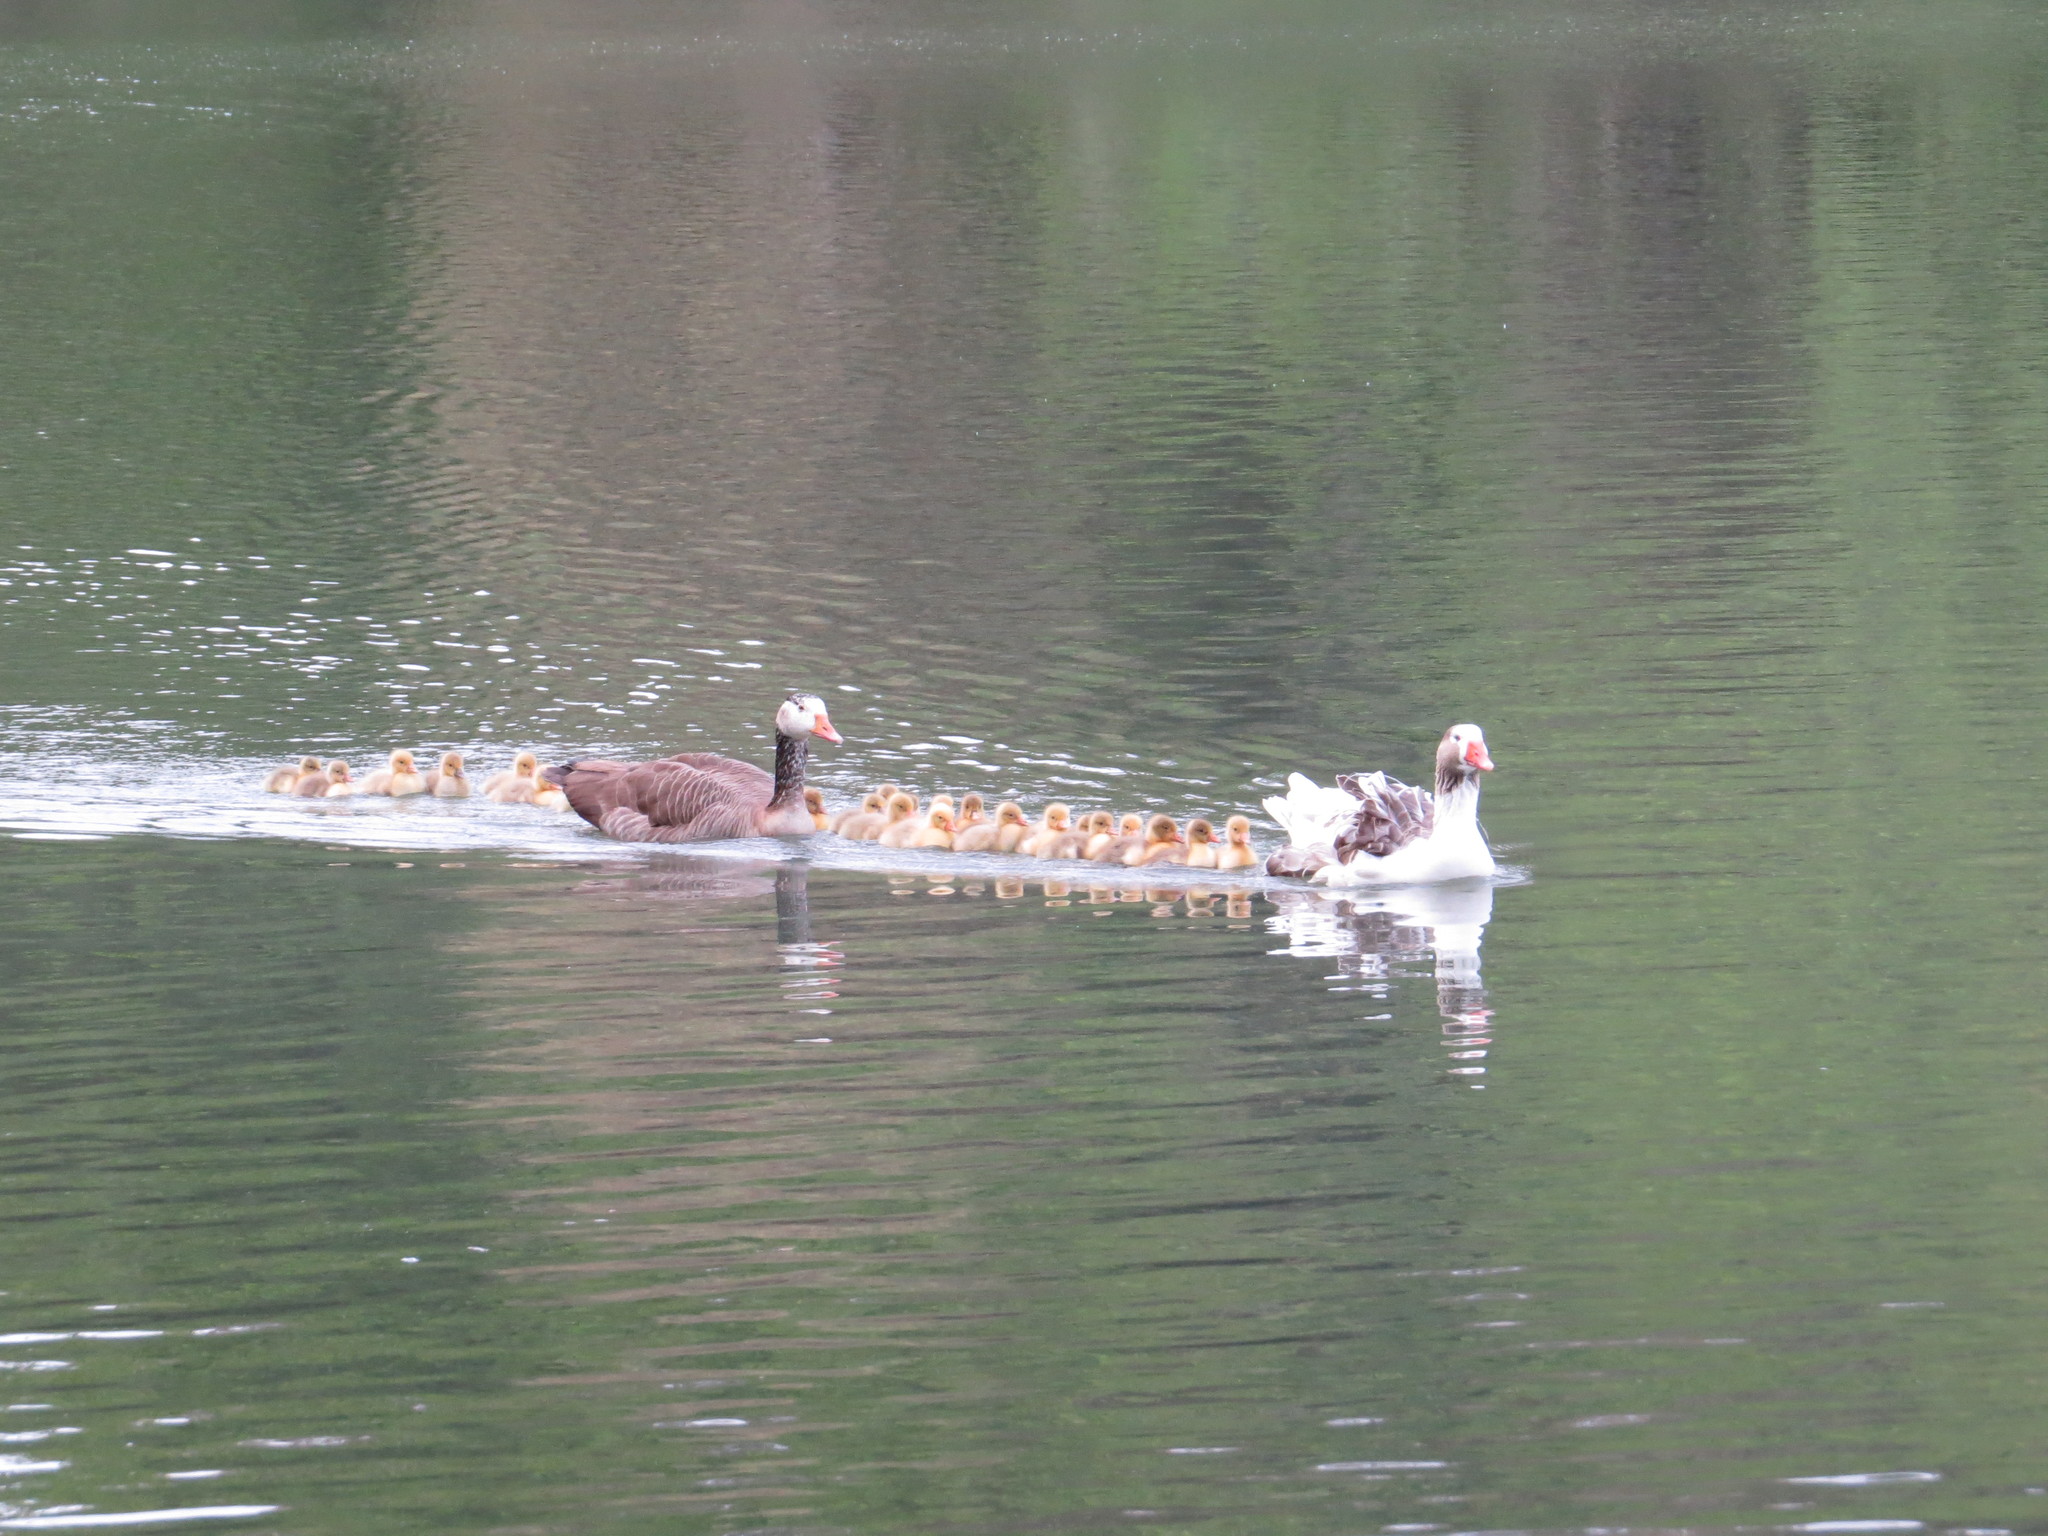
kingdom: Animalia
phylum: Chordata
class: Aves
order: Anseriformes
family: Anatidae
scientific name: Anatidae
